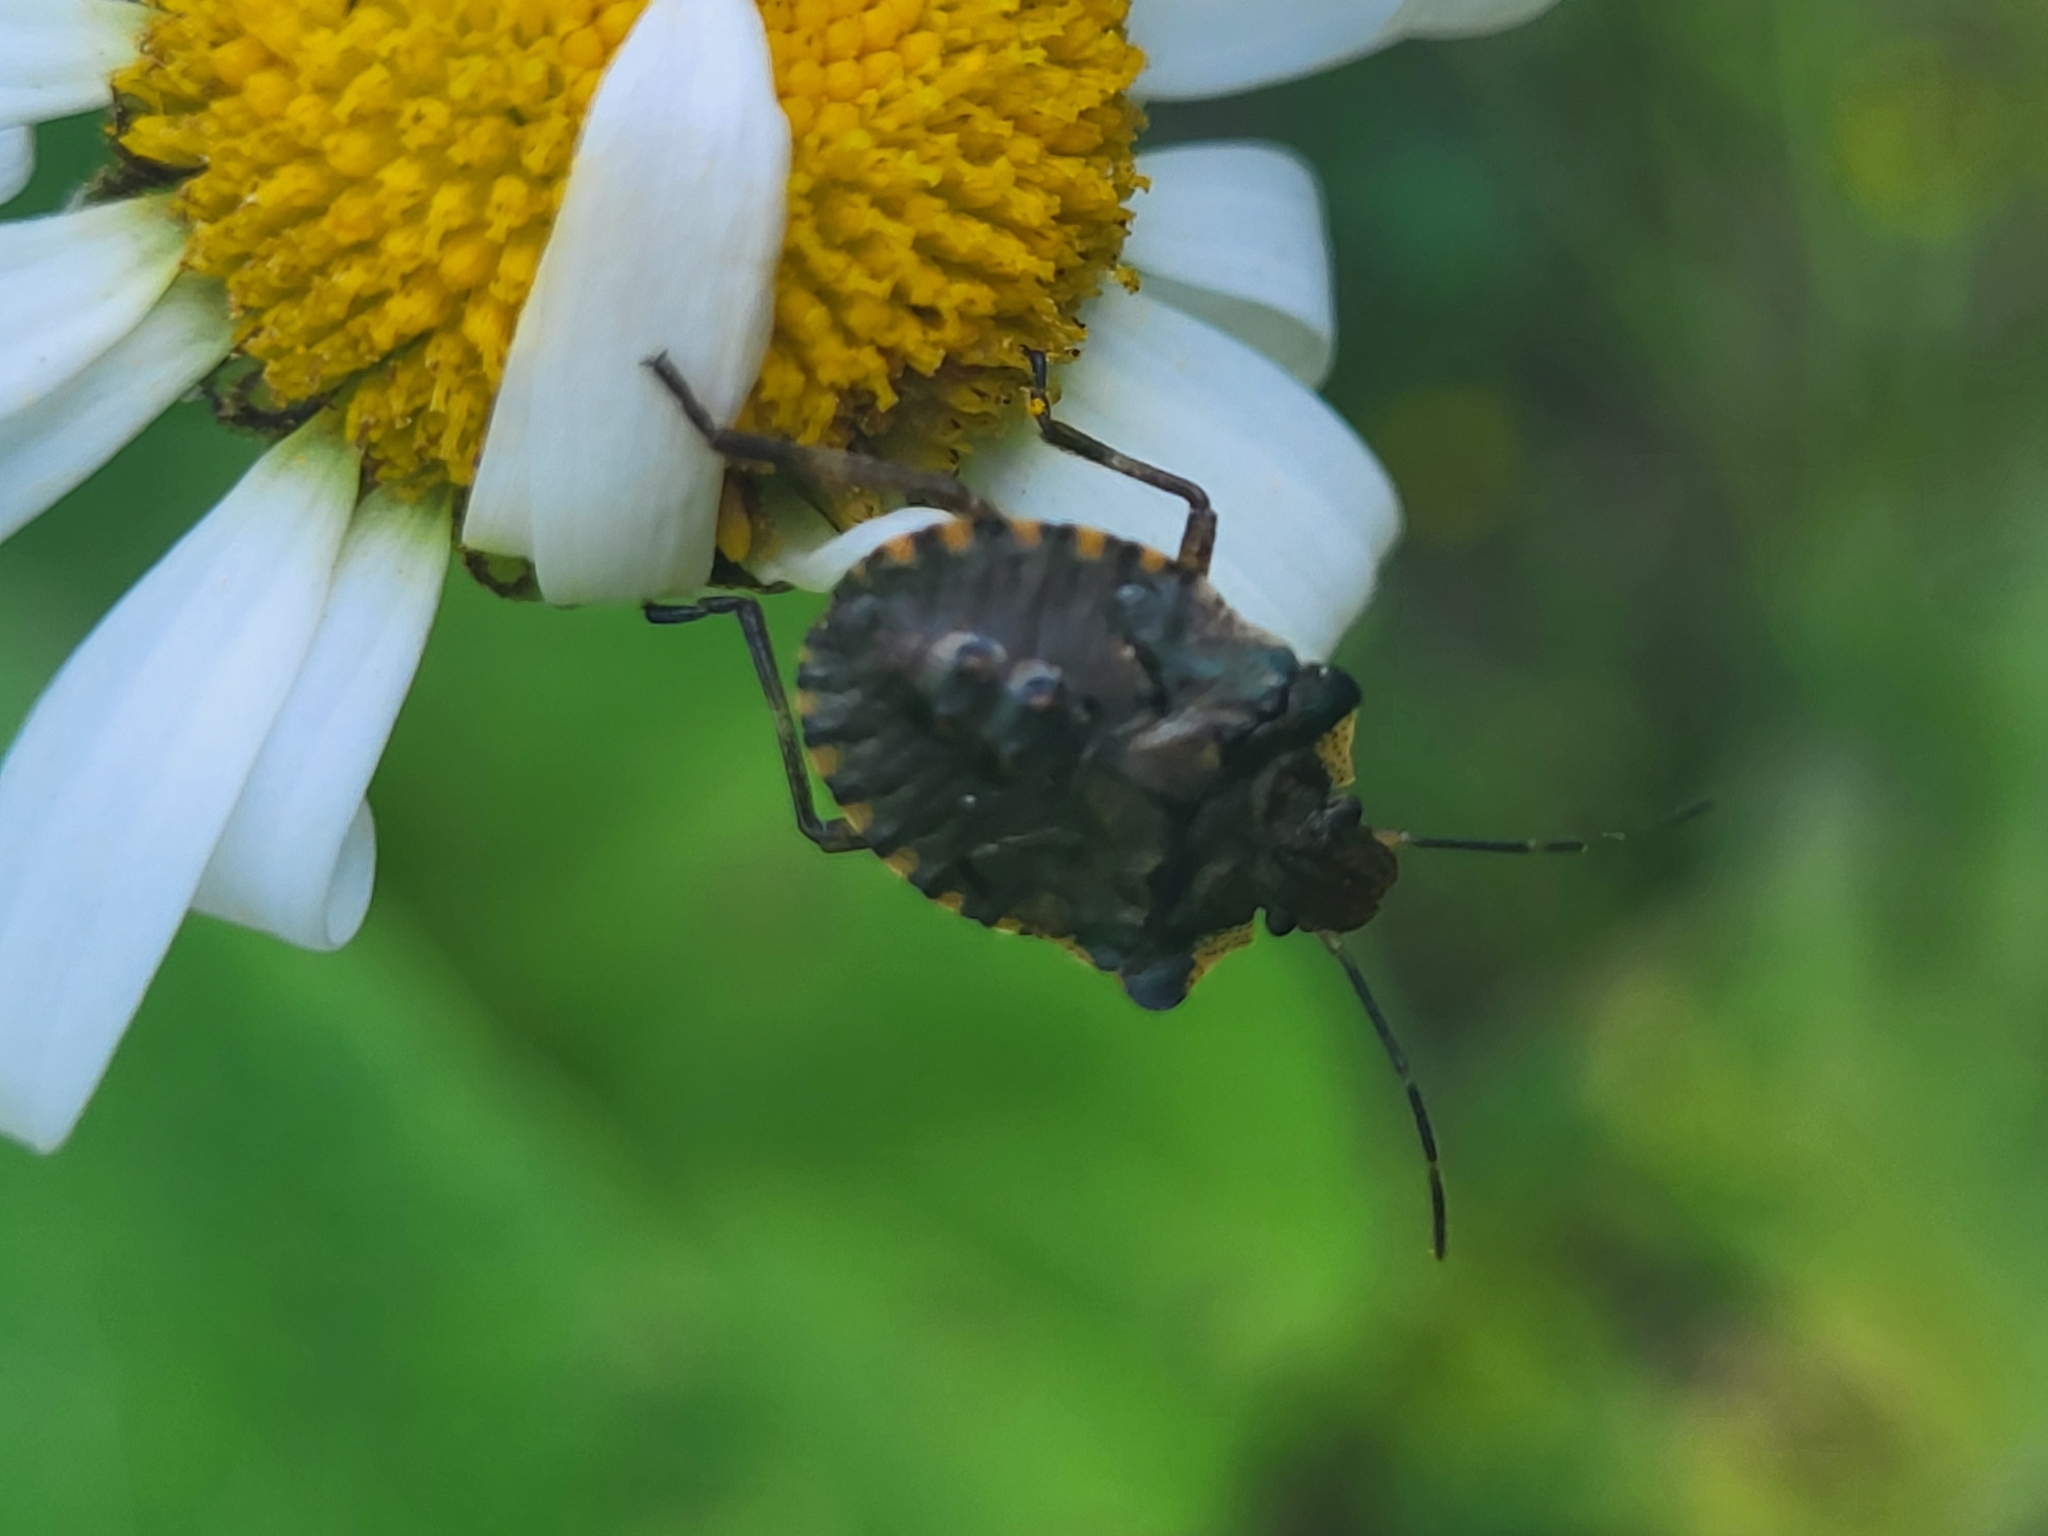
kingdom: Animalia
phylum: Arthropoda
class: Insecta
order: Hemiptera
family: Pentatomidae
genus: Pentatoma
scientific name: Pentatoma rufipes
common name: Forest bug
